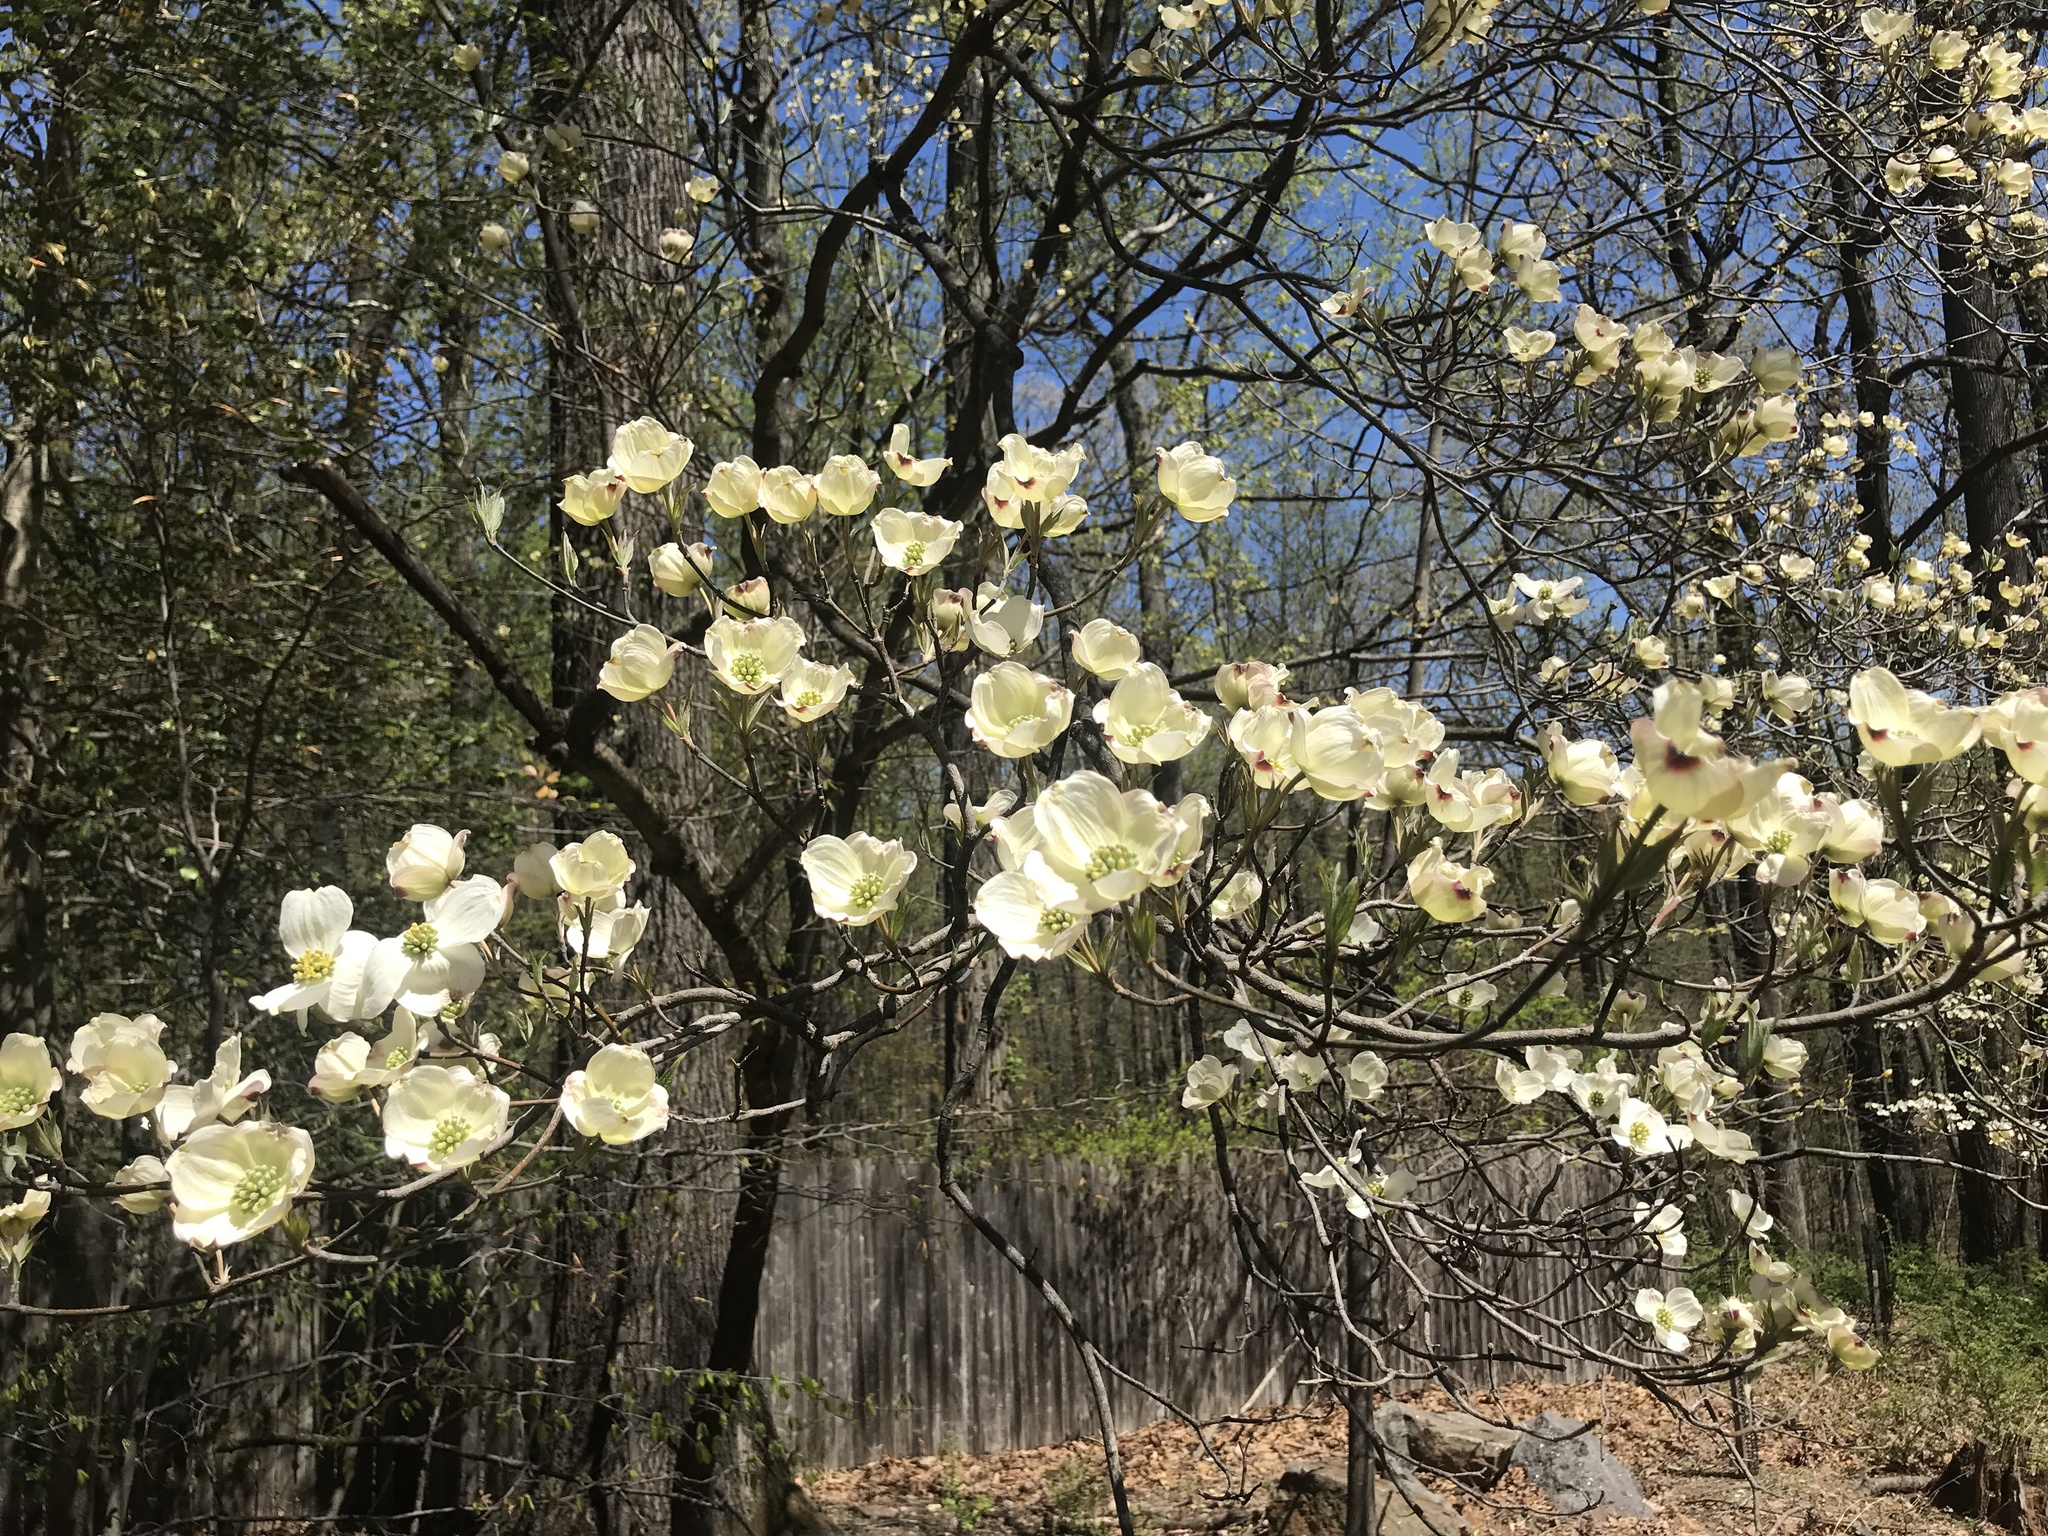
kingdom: Plantae
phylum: Tracheophyta
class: Magnoliopsida
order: Cornales
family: Cornaceae
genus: Cornus
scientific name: Cornus florida
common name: Flowering dogwood
